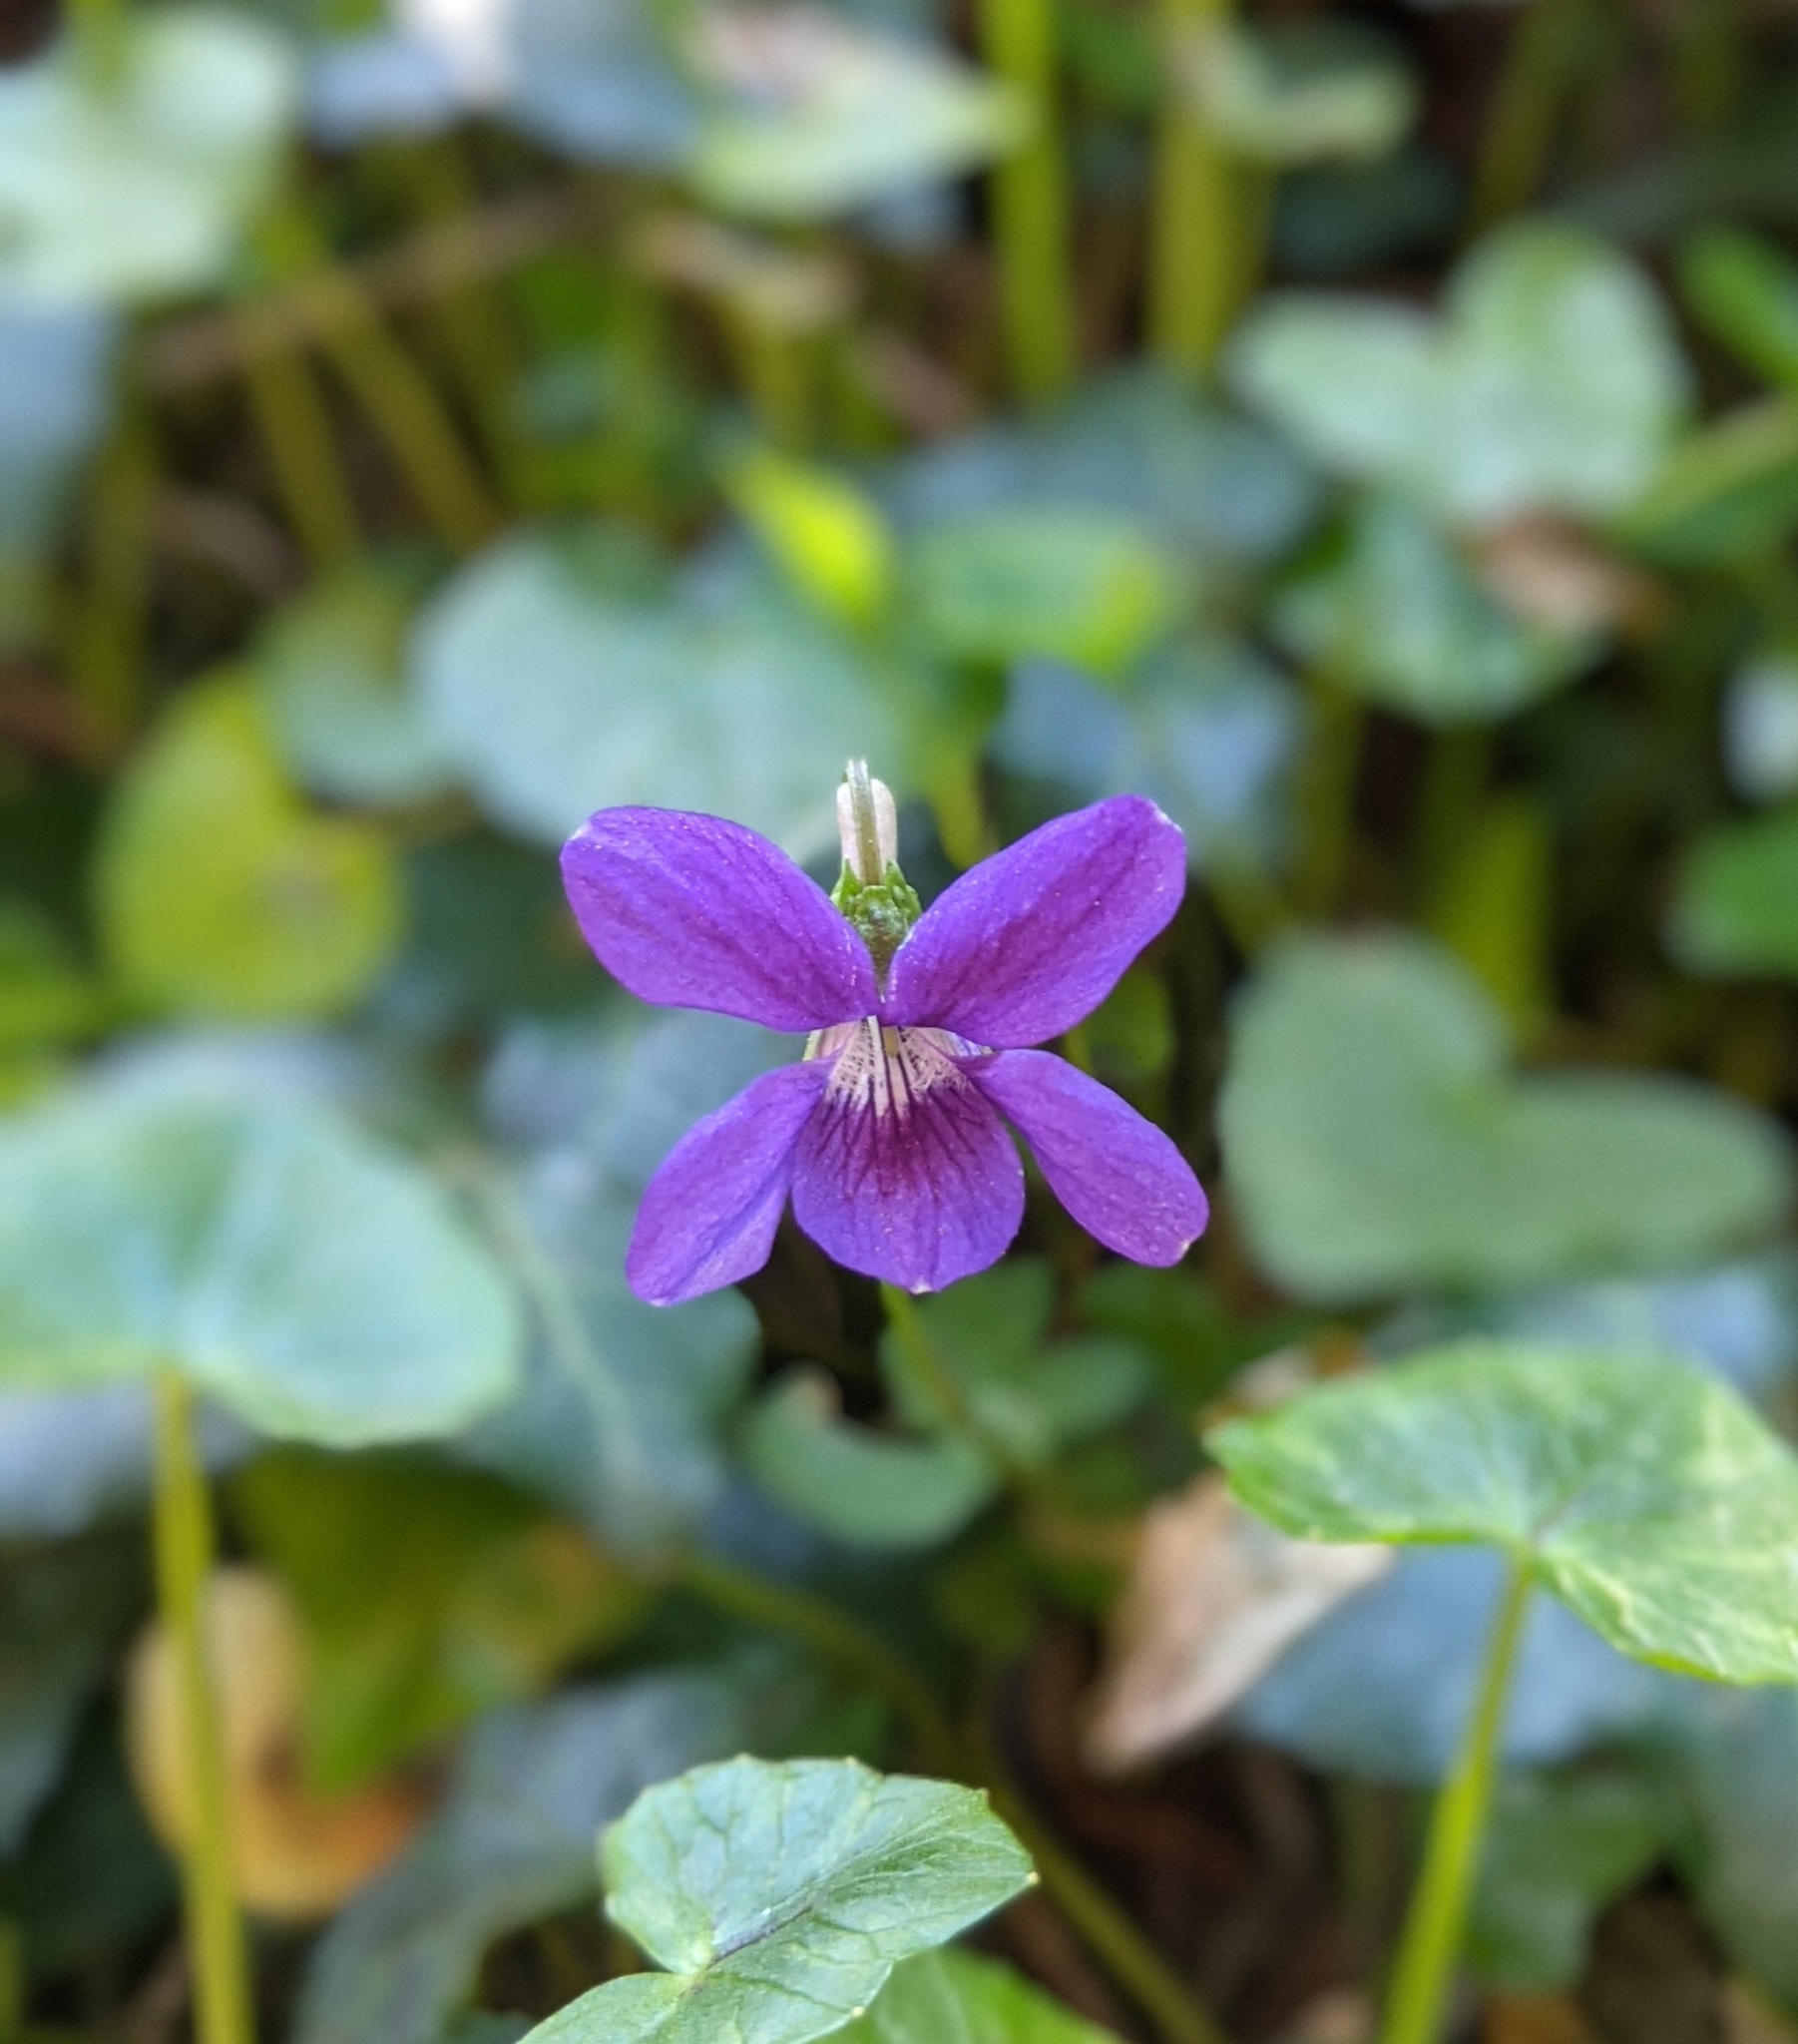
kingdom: Plantae
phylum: Tracheophyta
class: Magnoliopsida
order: Malpighiales
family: Violaceae
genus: Viola
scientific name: Viola riviniana
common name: Common dog-violet
